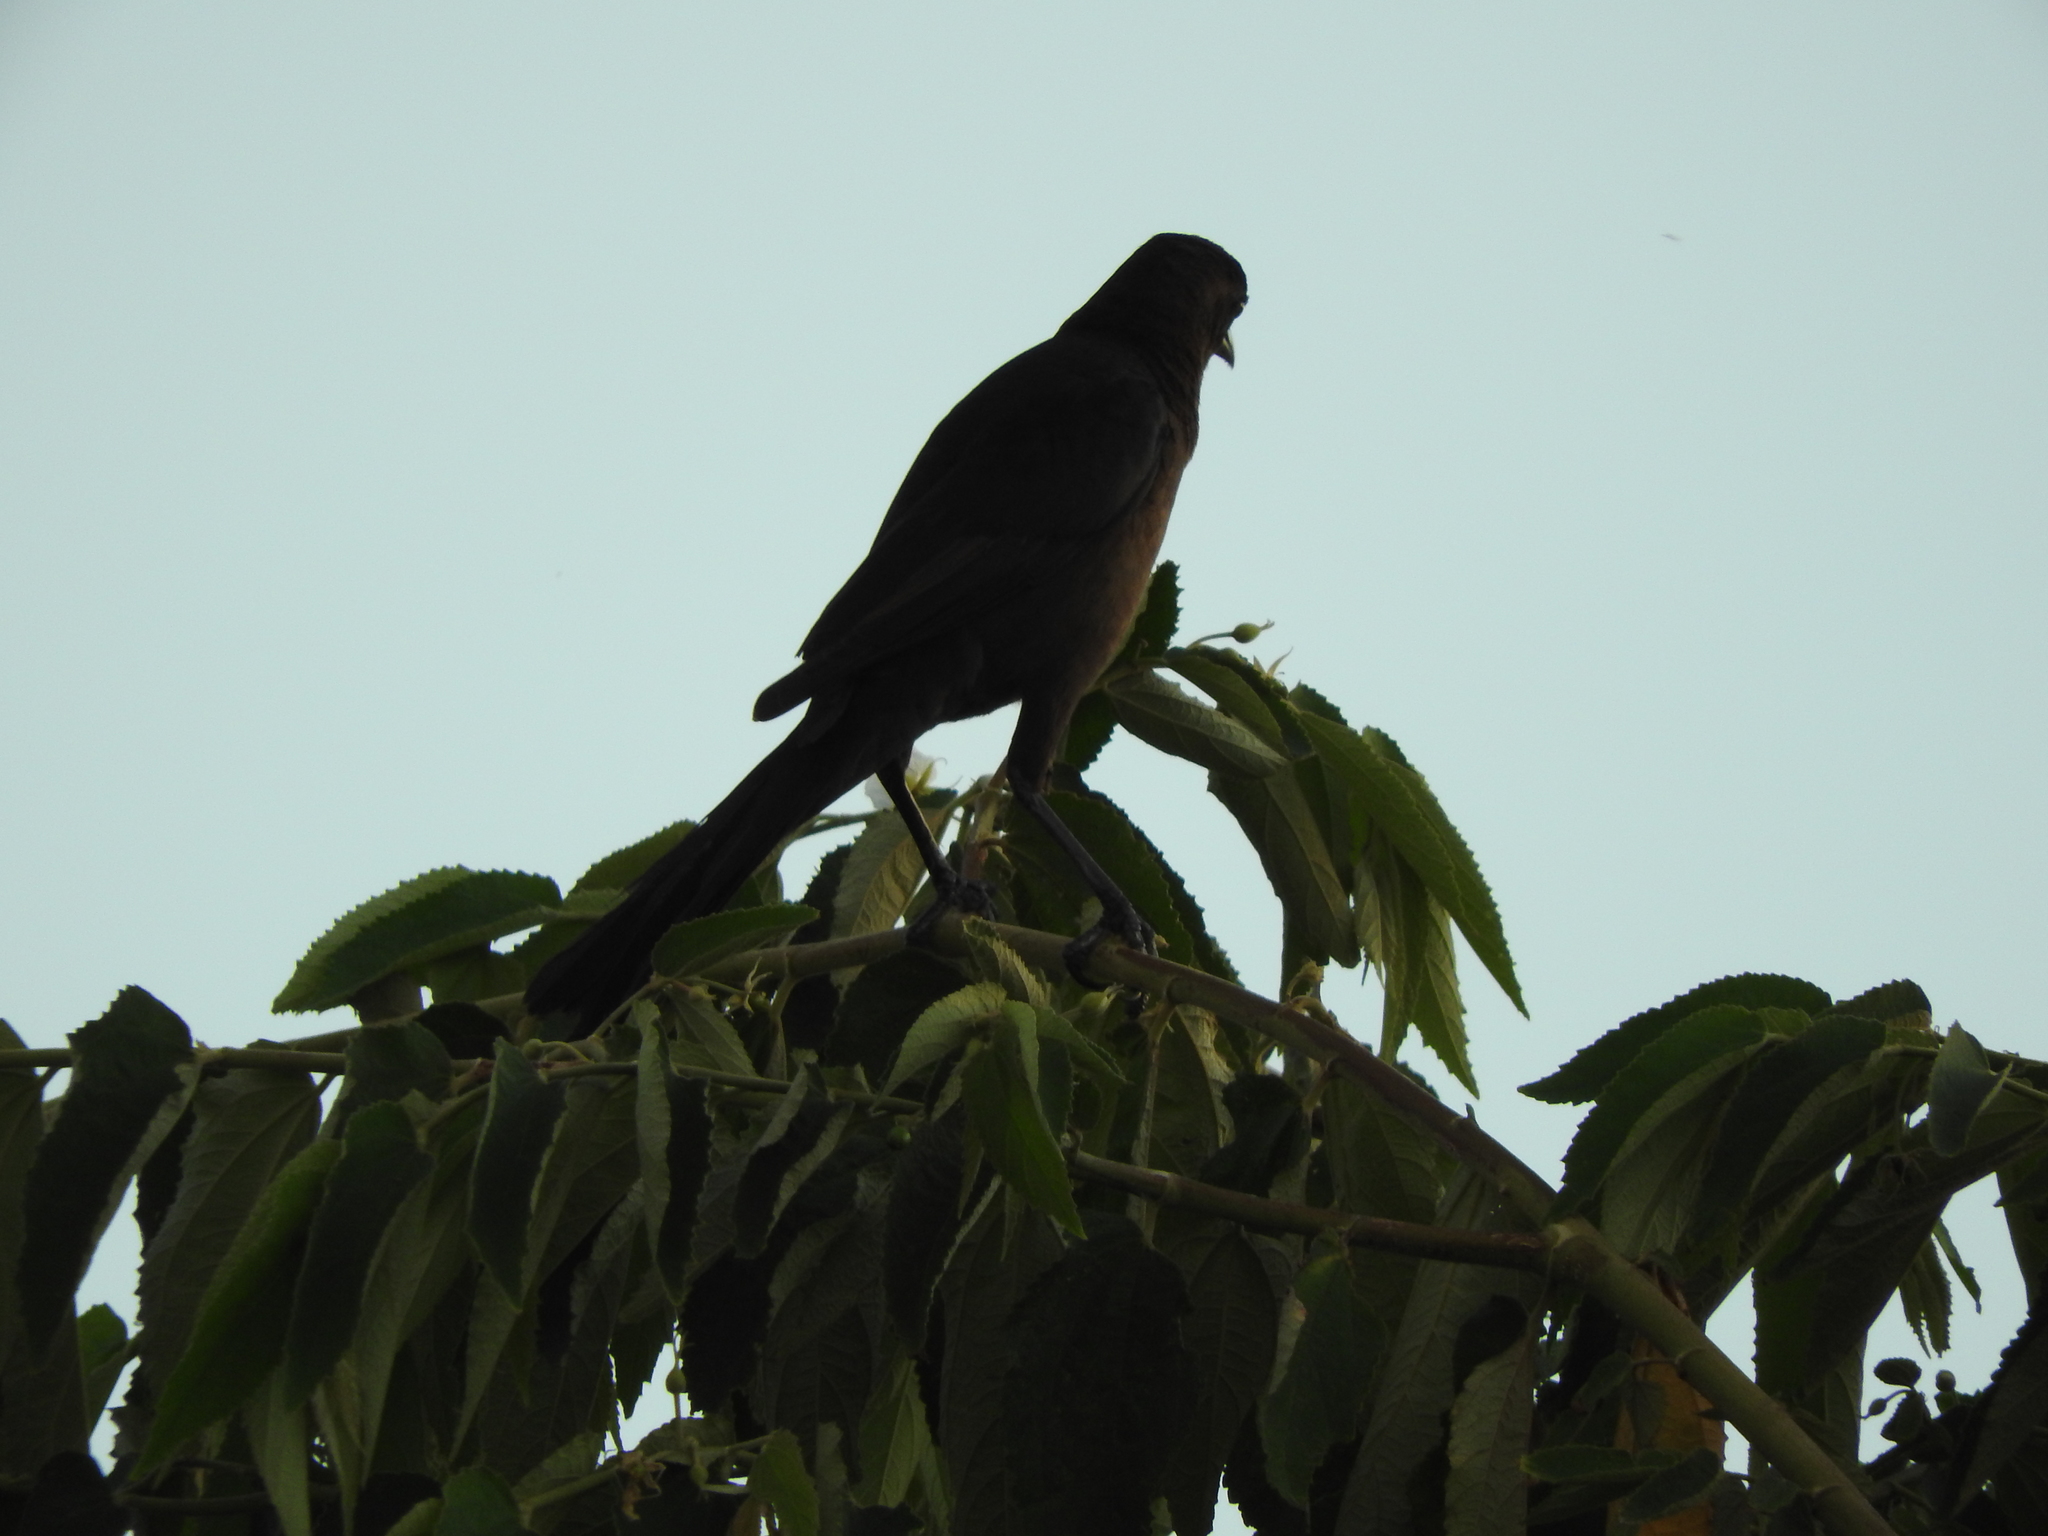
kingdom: Animalia
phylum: Chordata
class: Aves
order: Passeriformes
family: Icteridae
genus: Quiscalus
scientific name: Quiscalus mexicanus
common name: Great-tailed grackle
